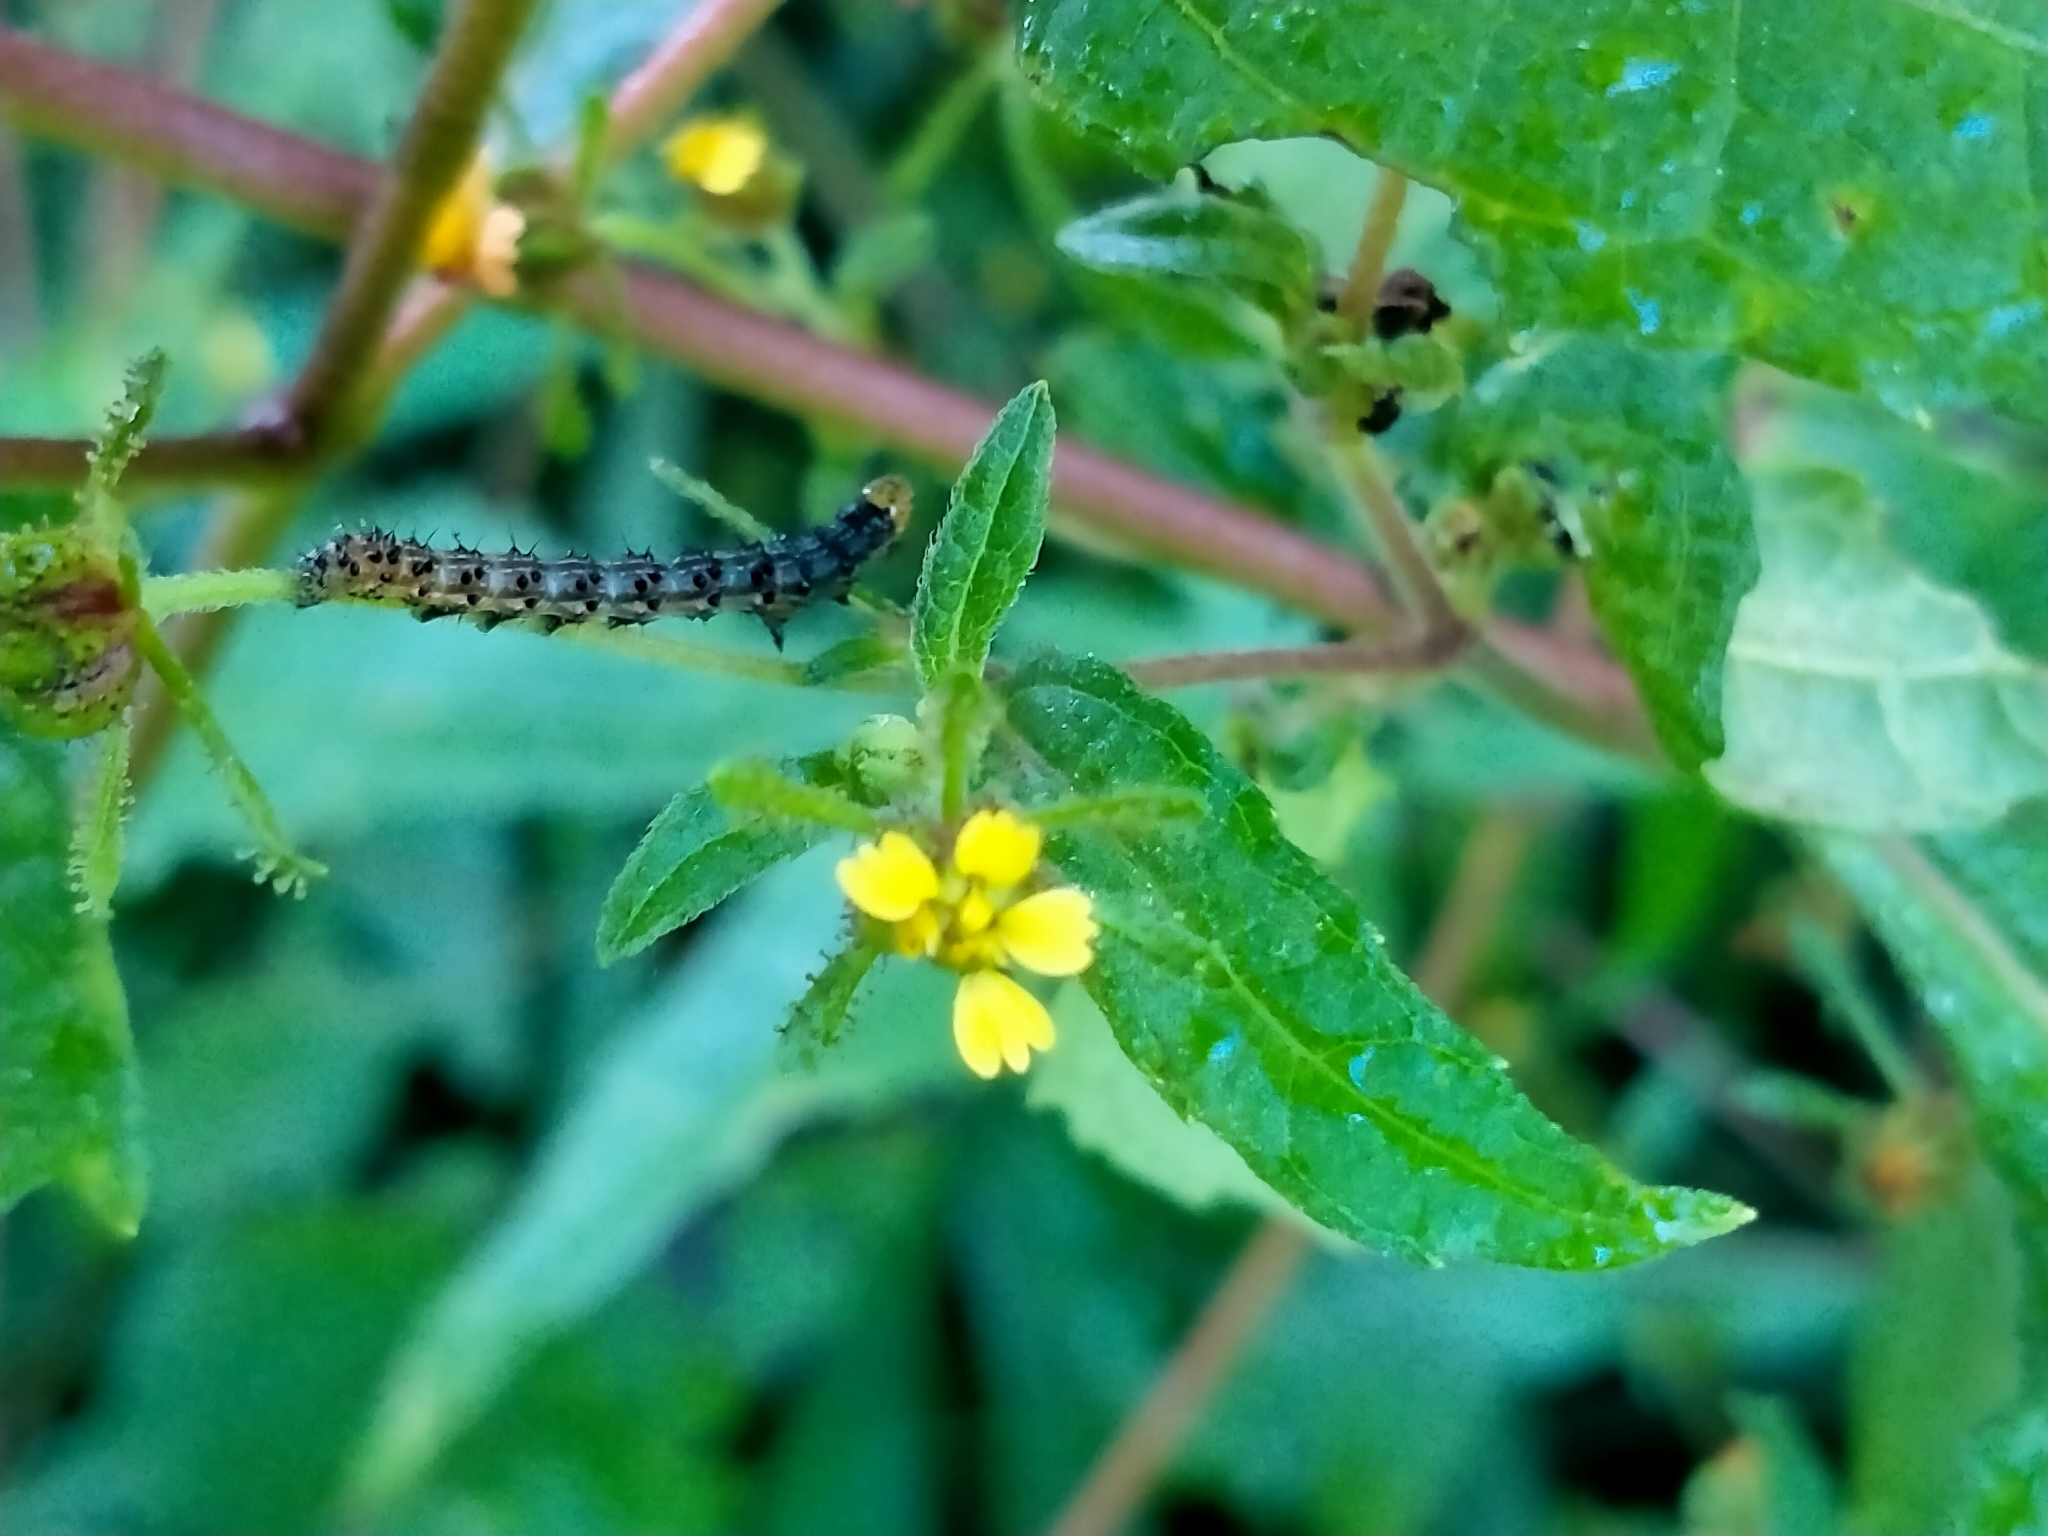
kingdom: Plantae
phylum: Tracheophyta
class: Magnoliopsida
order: Asterales
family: Asteraceae
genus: Sigesbeckia
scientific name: Sigesbeckia orientalis
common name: Eastern st paul's-wort
